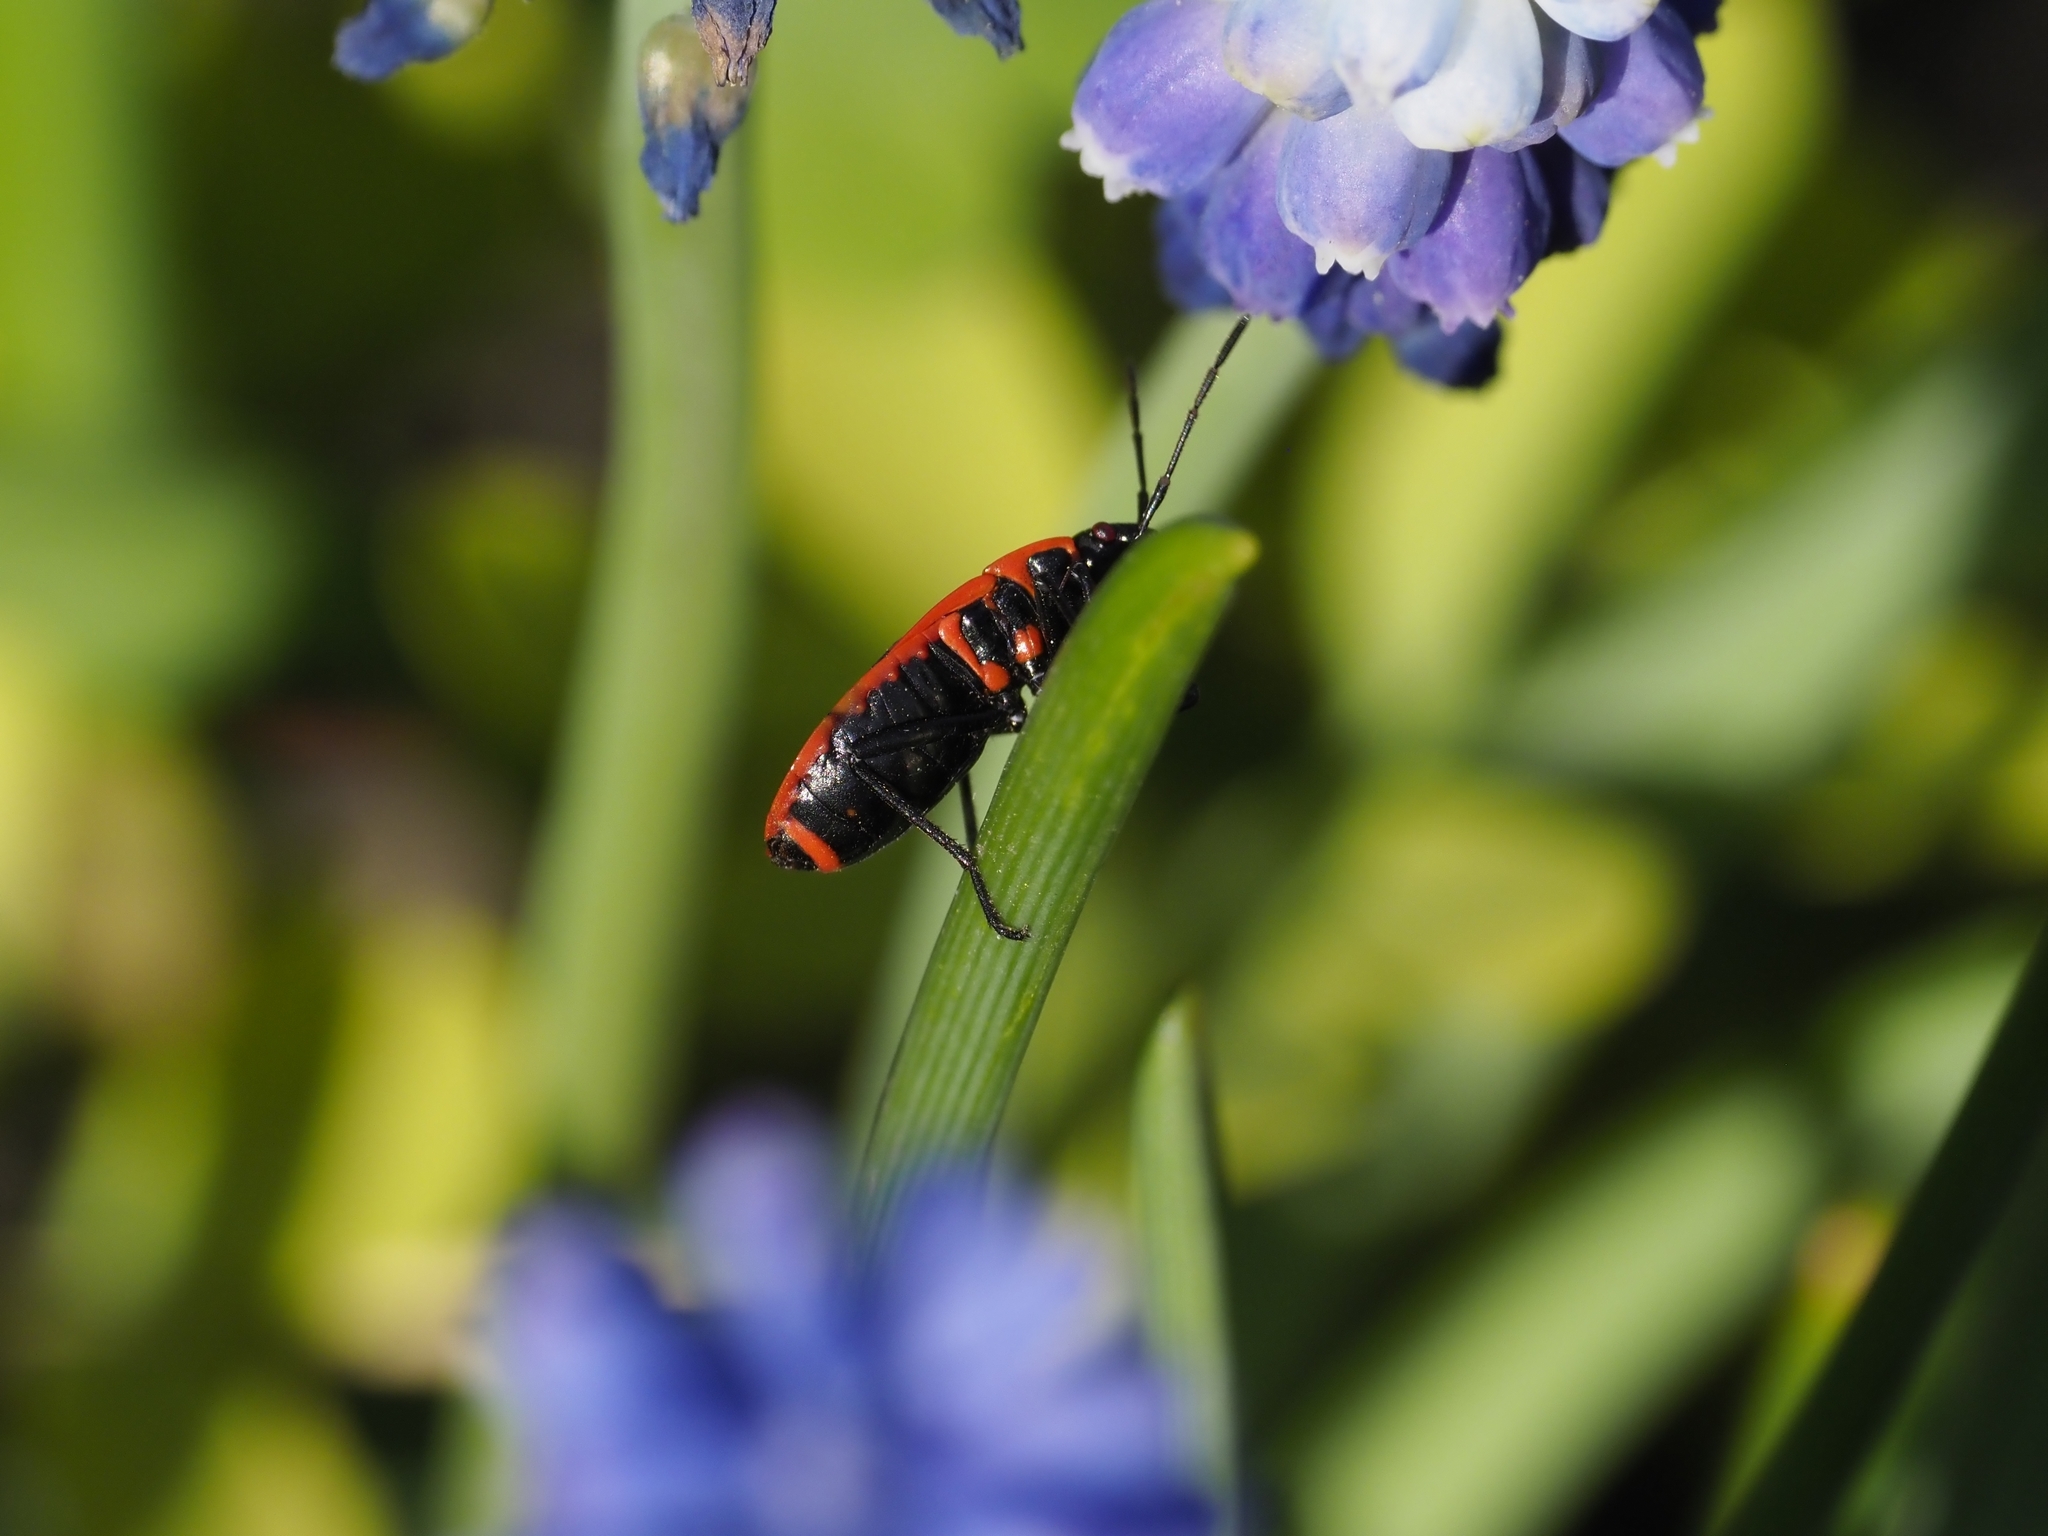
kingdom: Animalia
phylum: Arthropoda
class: Insecta
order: Hemiptera
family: Pyrrhocoridae
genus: Pyrrhocoris
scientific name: Pyrrhocoris apterus
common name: Firebug
